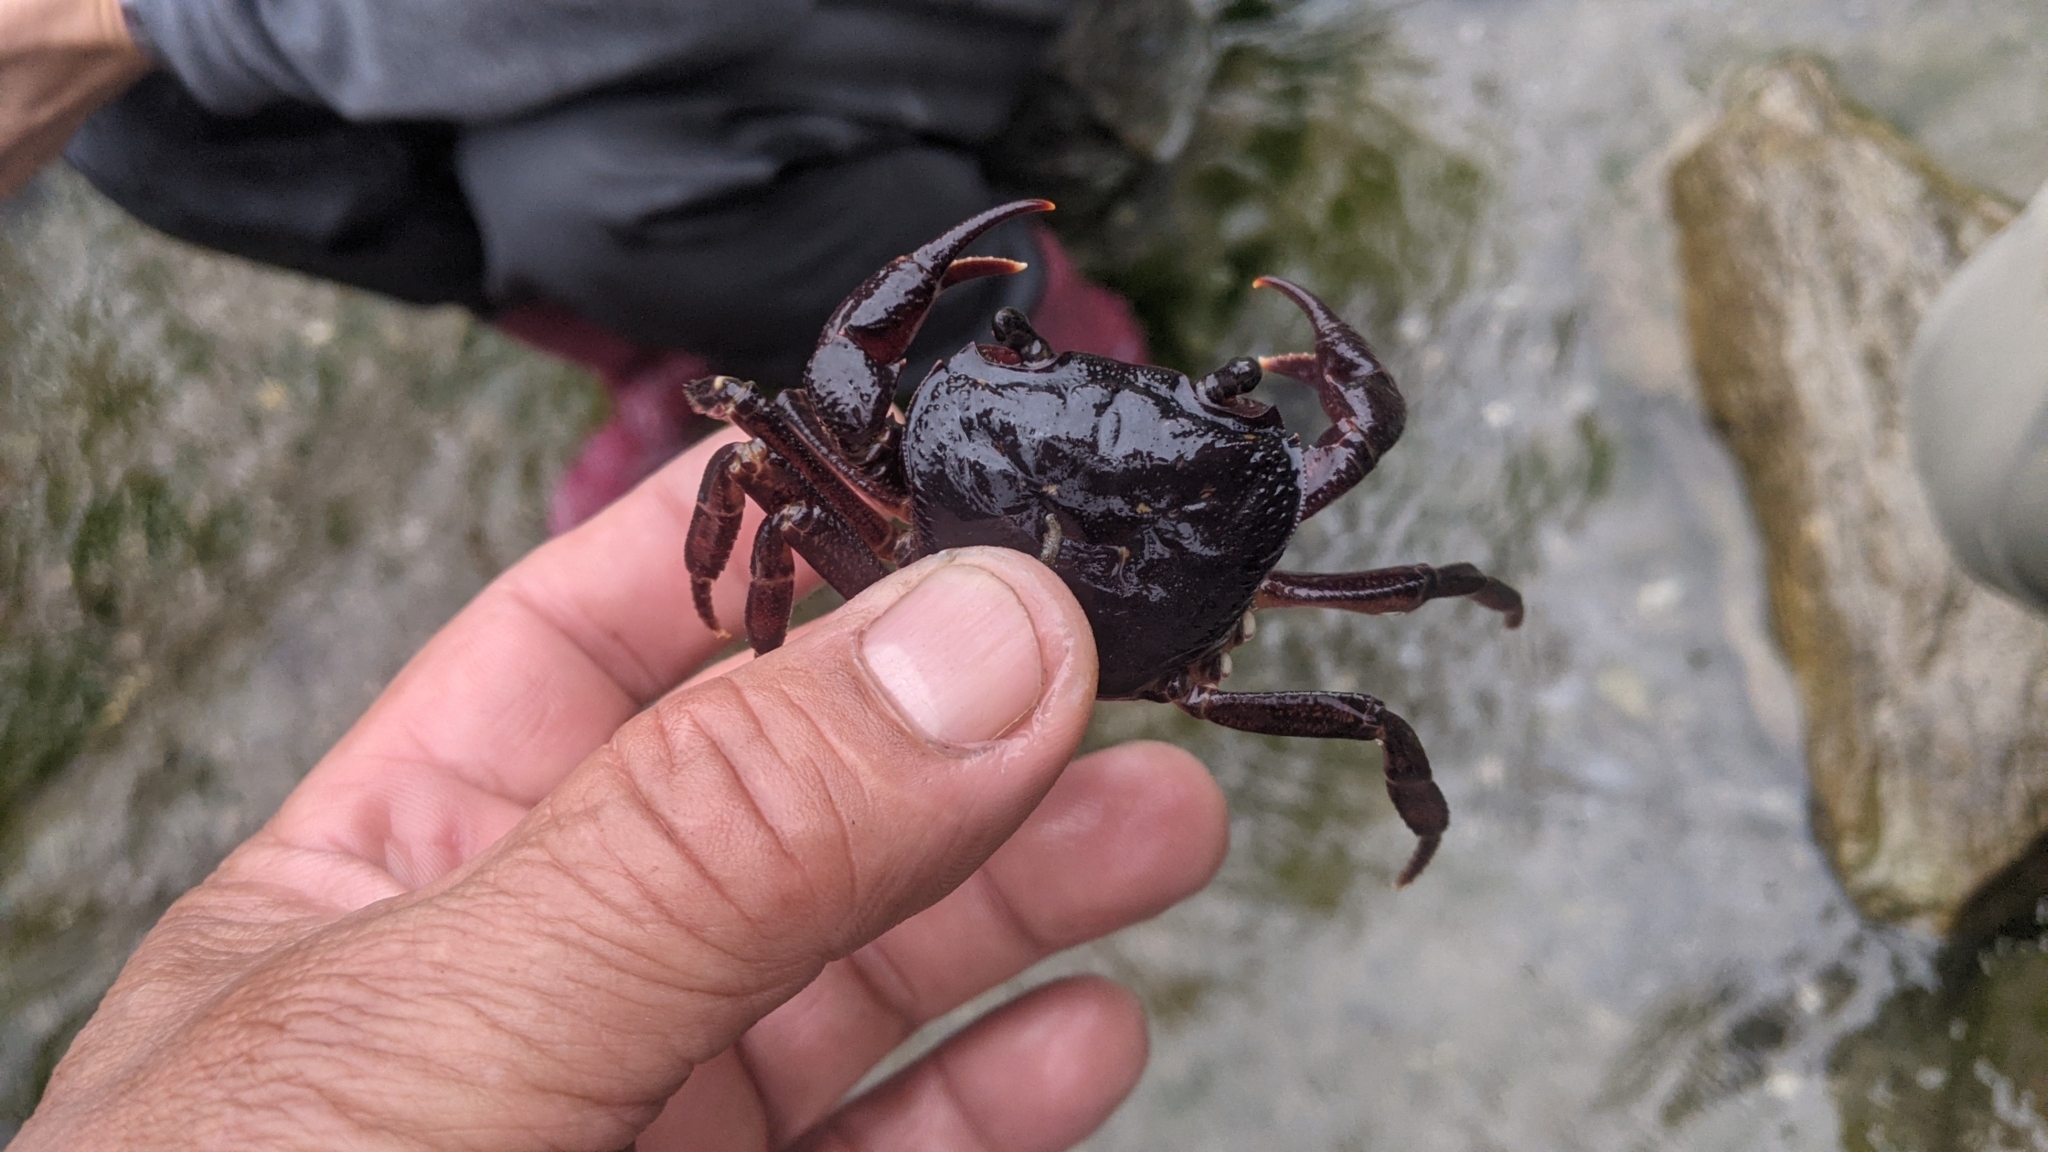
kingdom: Animalia
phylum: Arthropoda
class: Malacostraca
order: Decapoda
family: Potamidae
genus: Candidiopotamon
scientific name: Candidiopotamon rathbuni
